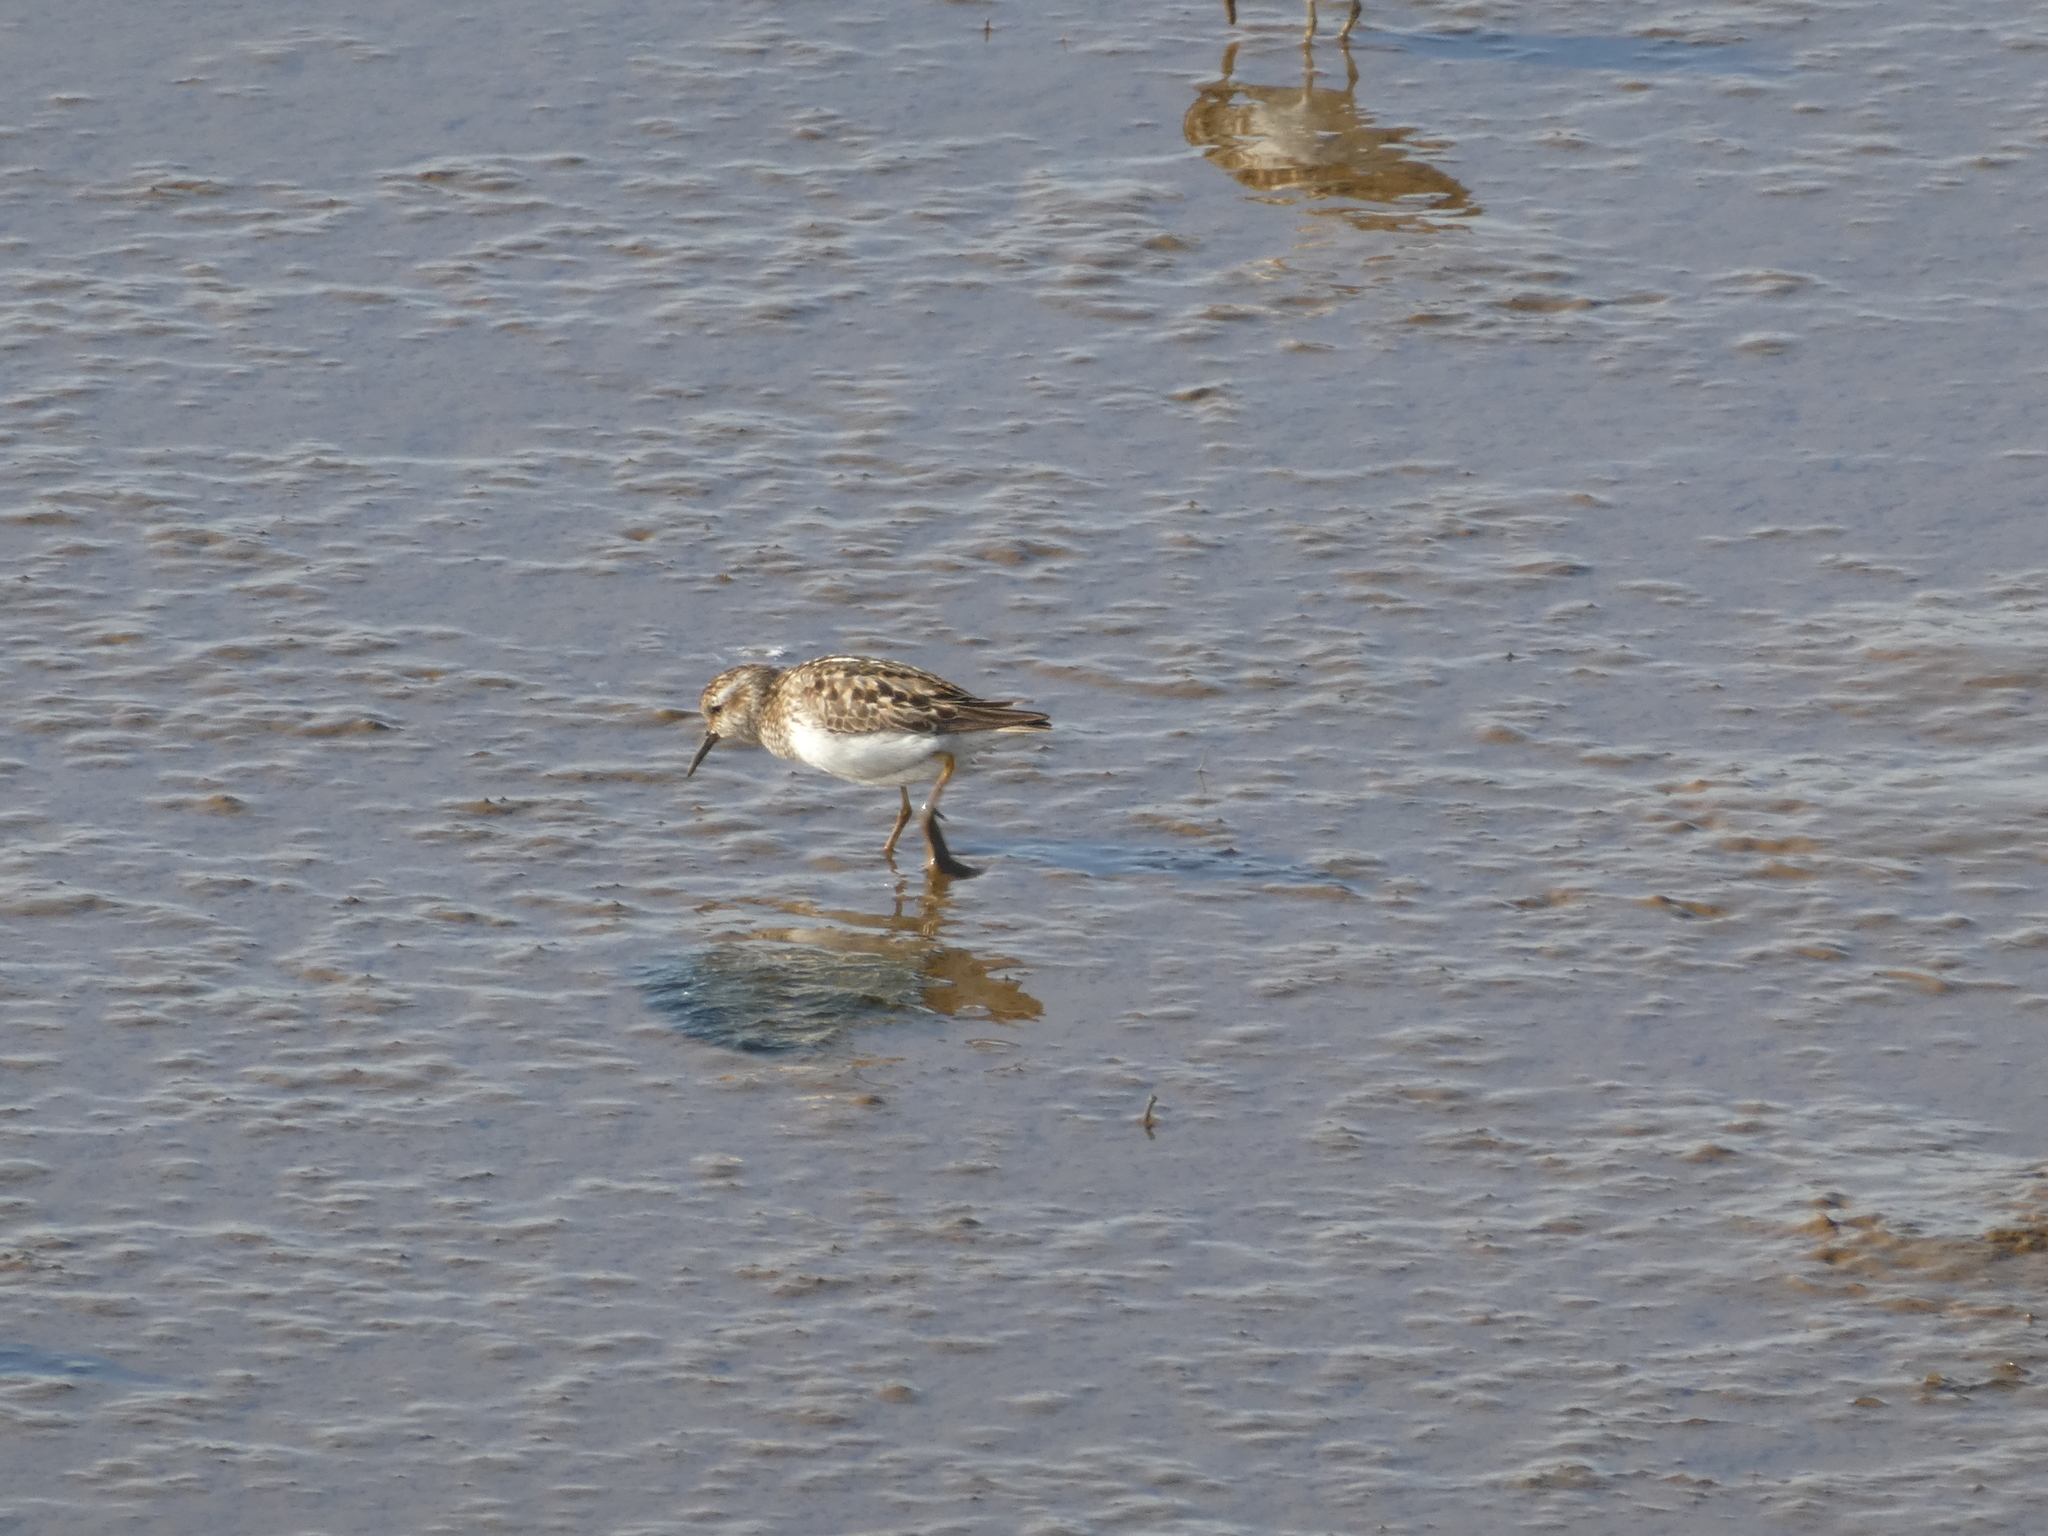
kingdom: Animalia
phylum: Chordata
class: Aves
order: Charadriiformes
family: Scolopacidae
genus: Calidris
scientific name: Calidris minutilla
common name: Least sandpiper
